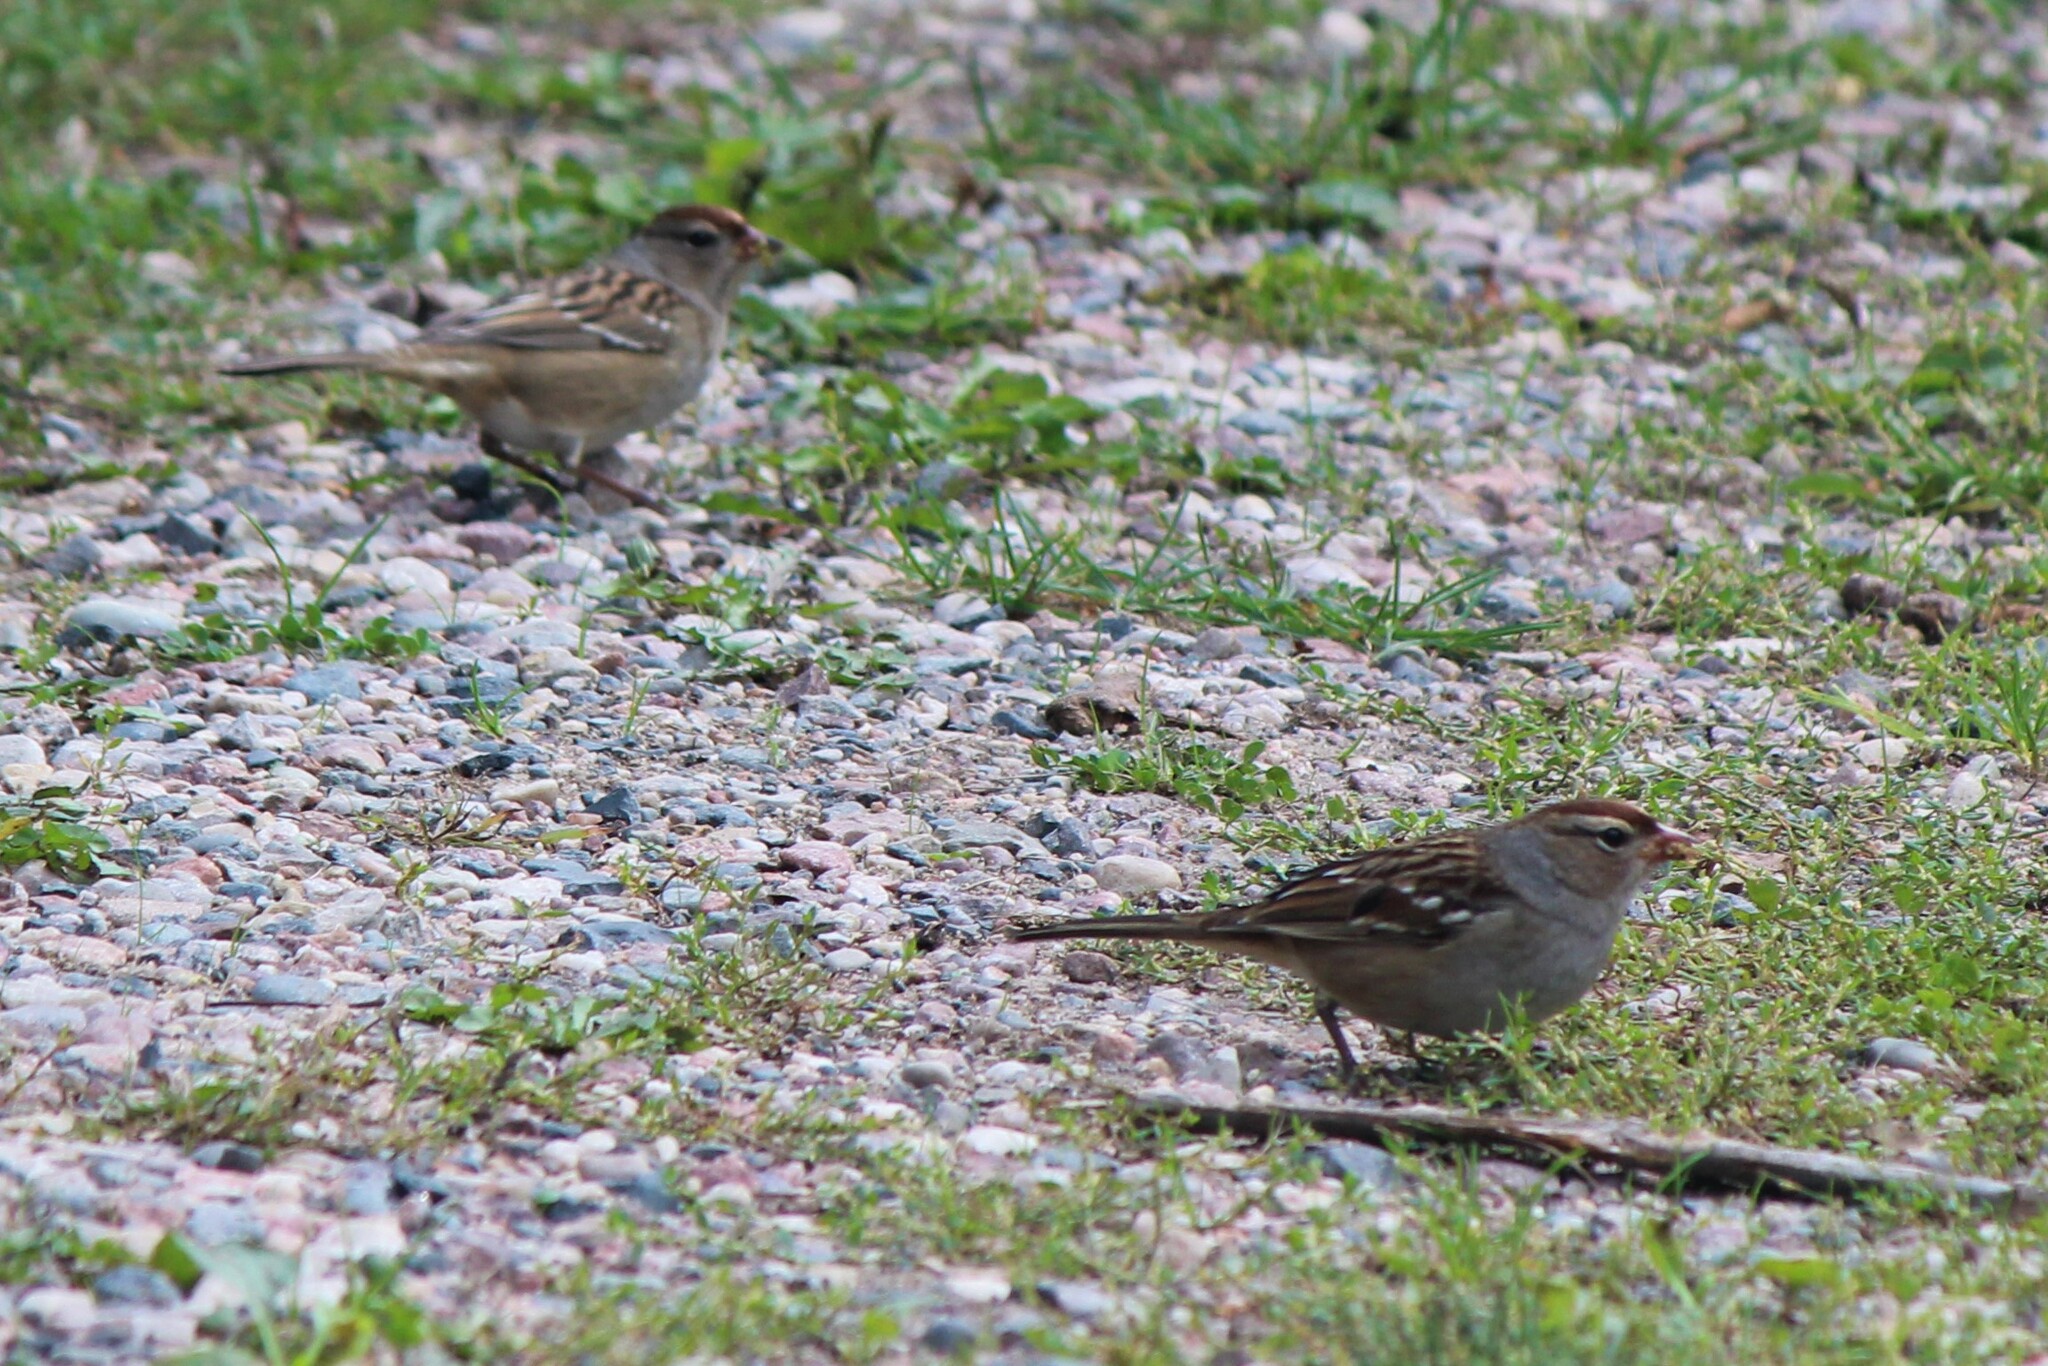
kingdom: Animalia
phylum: Chordata
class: Aves
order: Passeriformes
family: Passerellidae
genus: Zonotrichia
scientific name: Zonotrichia leucophrys
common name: White-crowned sparrow
